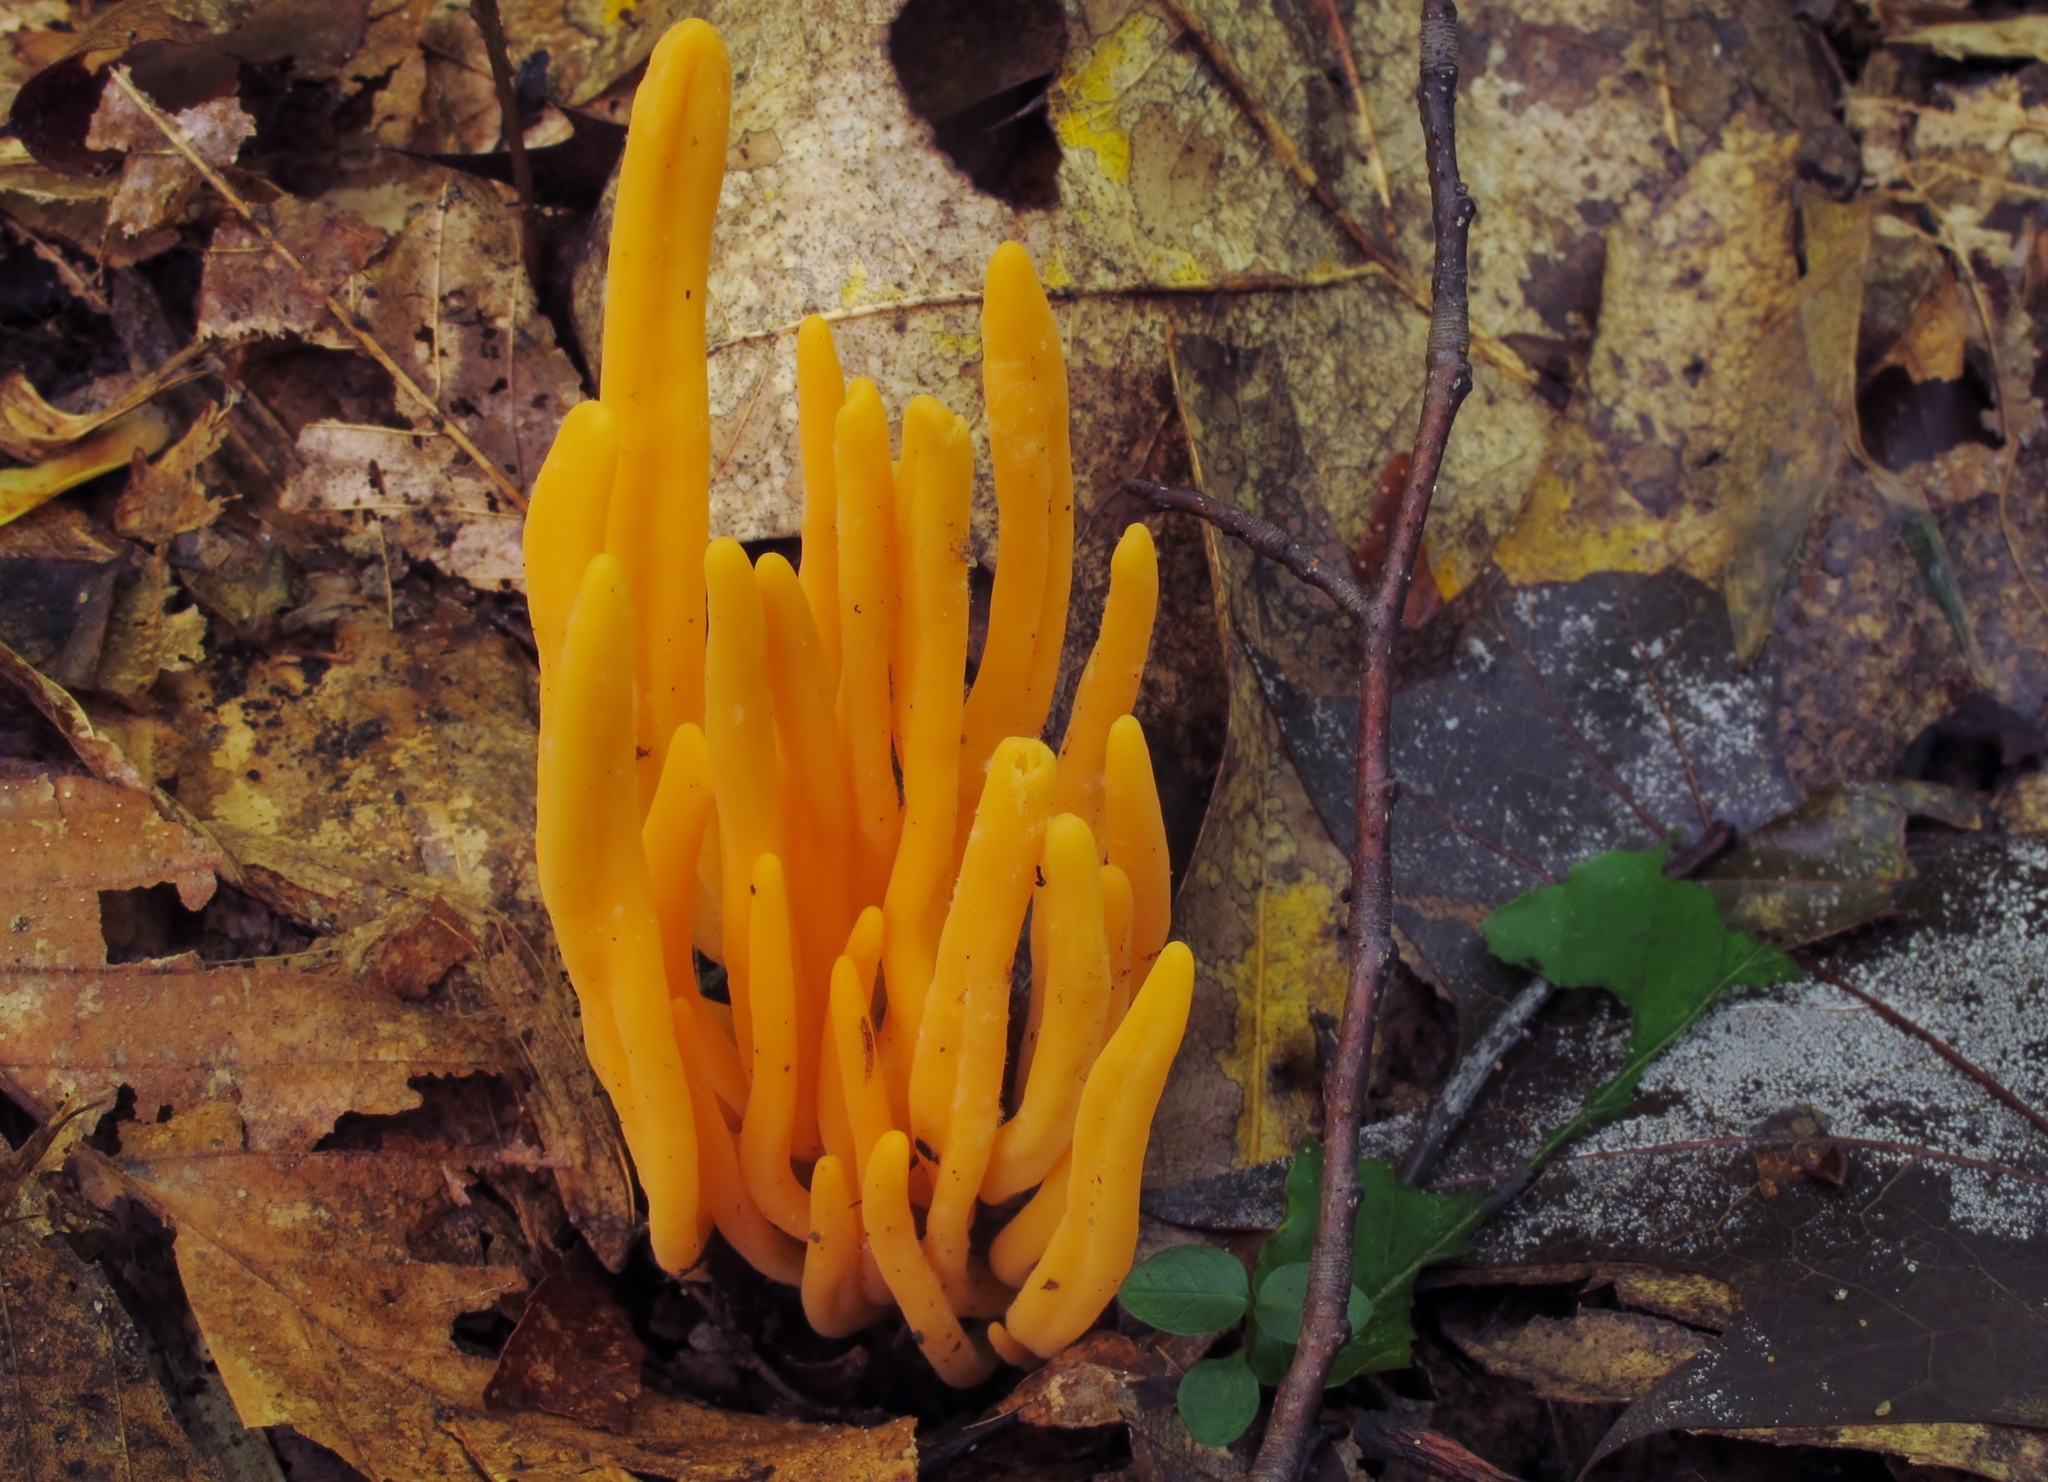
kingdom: Fungi
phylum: Basidiomycota
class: Agaricomycetes
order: Agaricales
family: Clavariaceae
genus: Clavulinopsis
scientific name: Clavulinopsis aurantiocinnabarina
